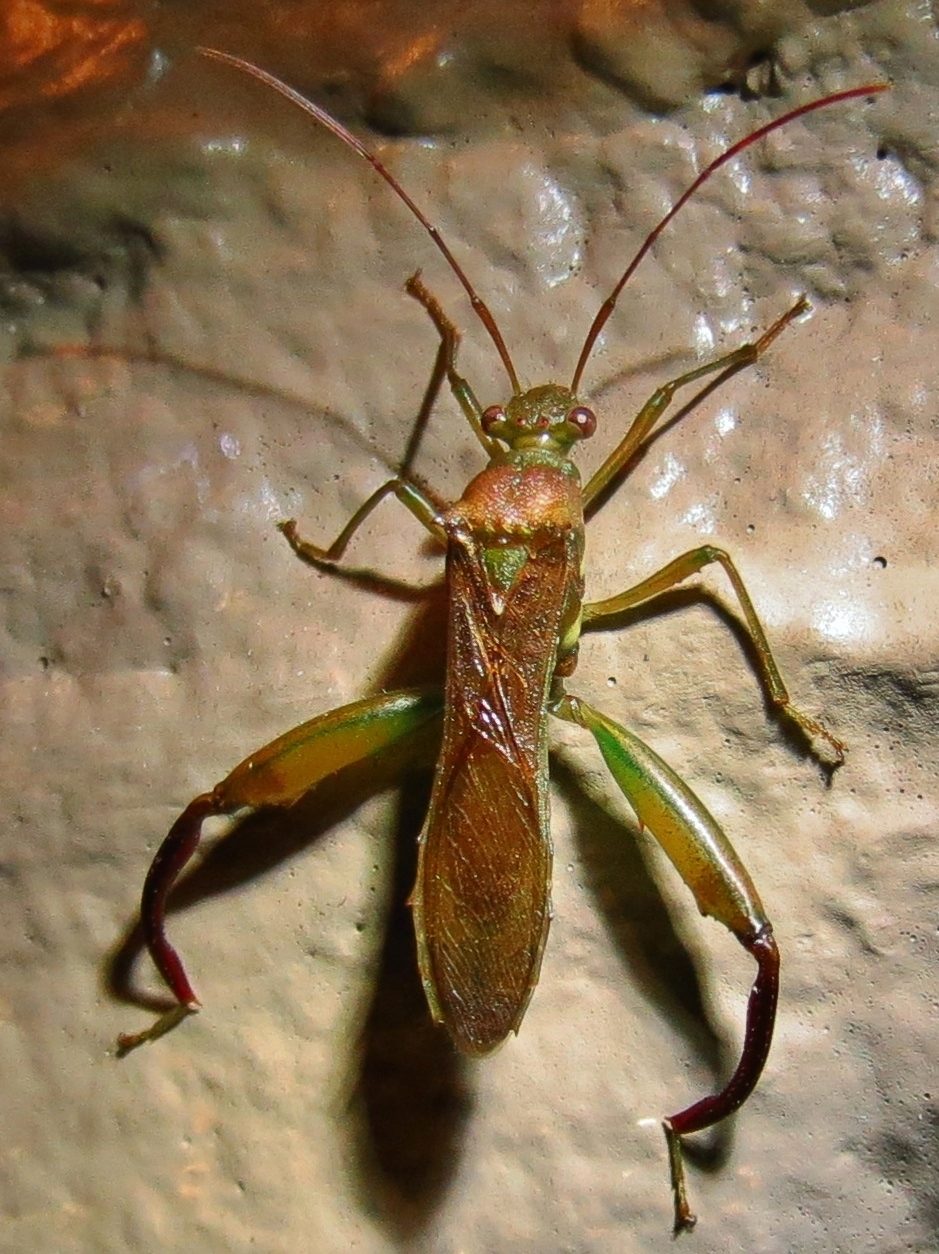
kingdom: Animalia
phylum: Arthropoda
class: Insecta
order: Hemiptera
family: Alydidae
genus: Hyalymenus
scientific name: Hyalymenus tarsatus
